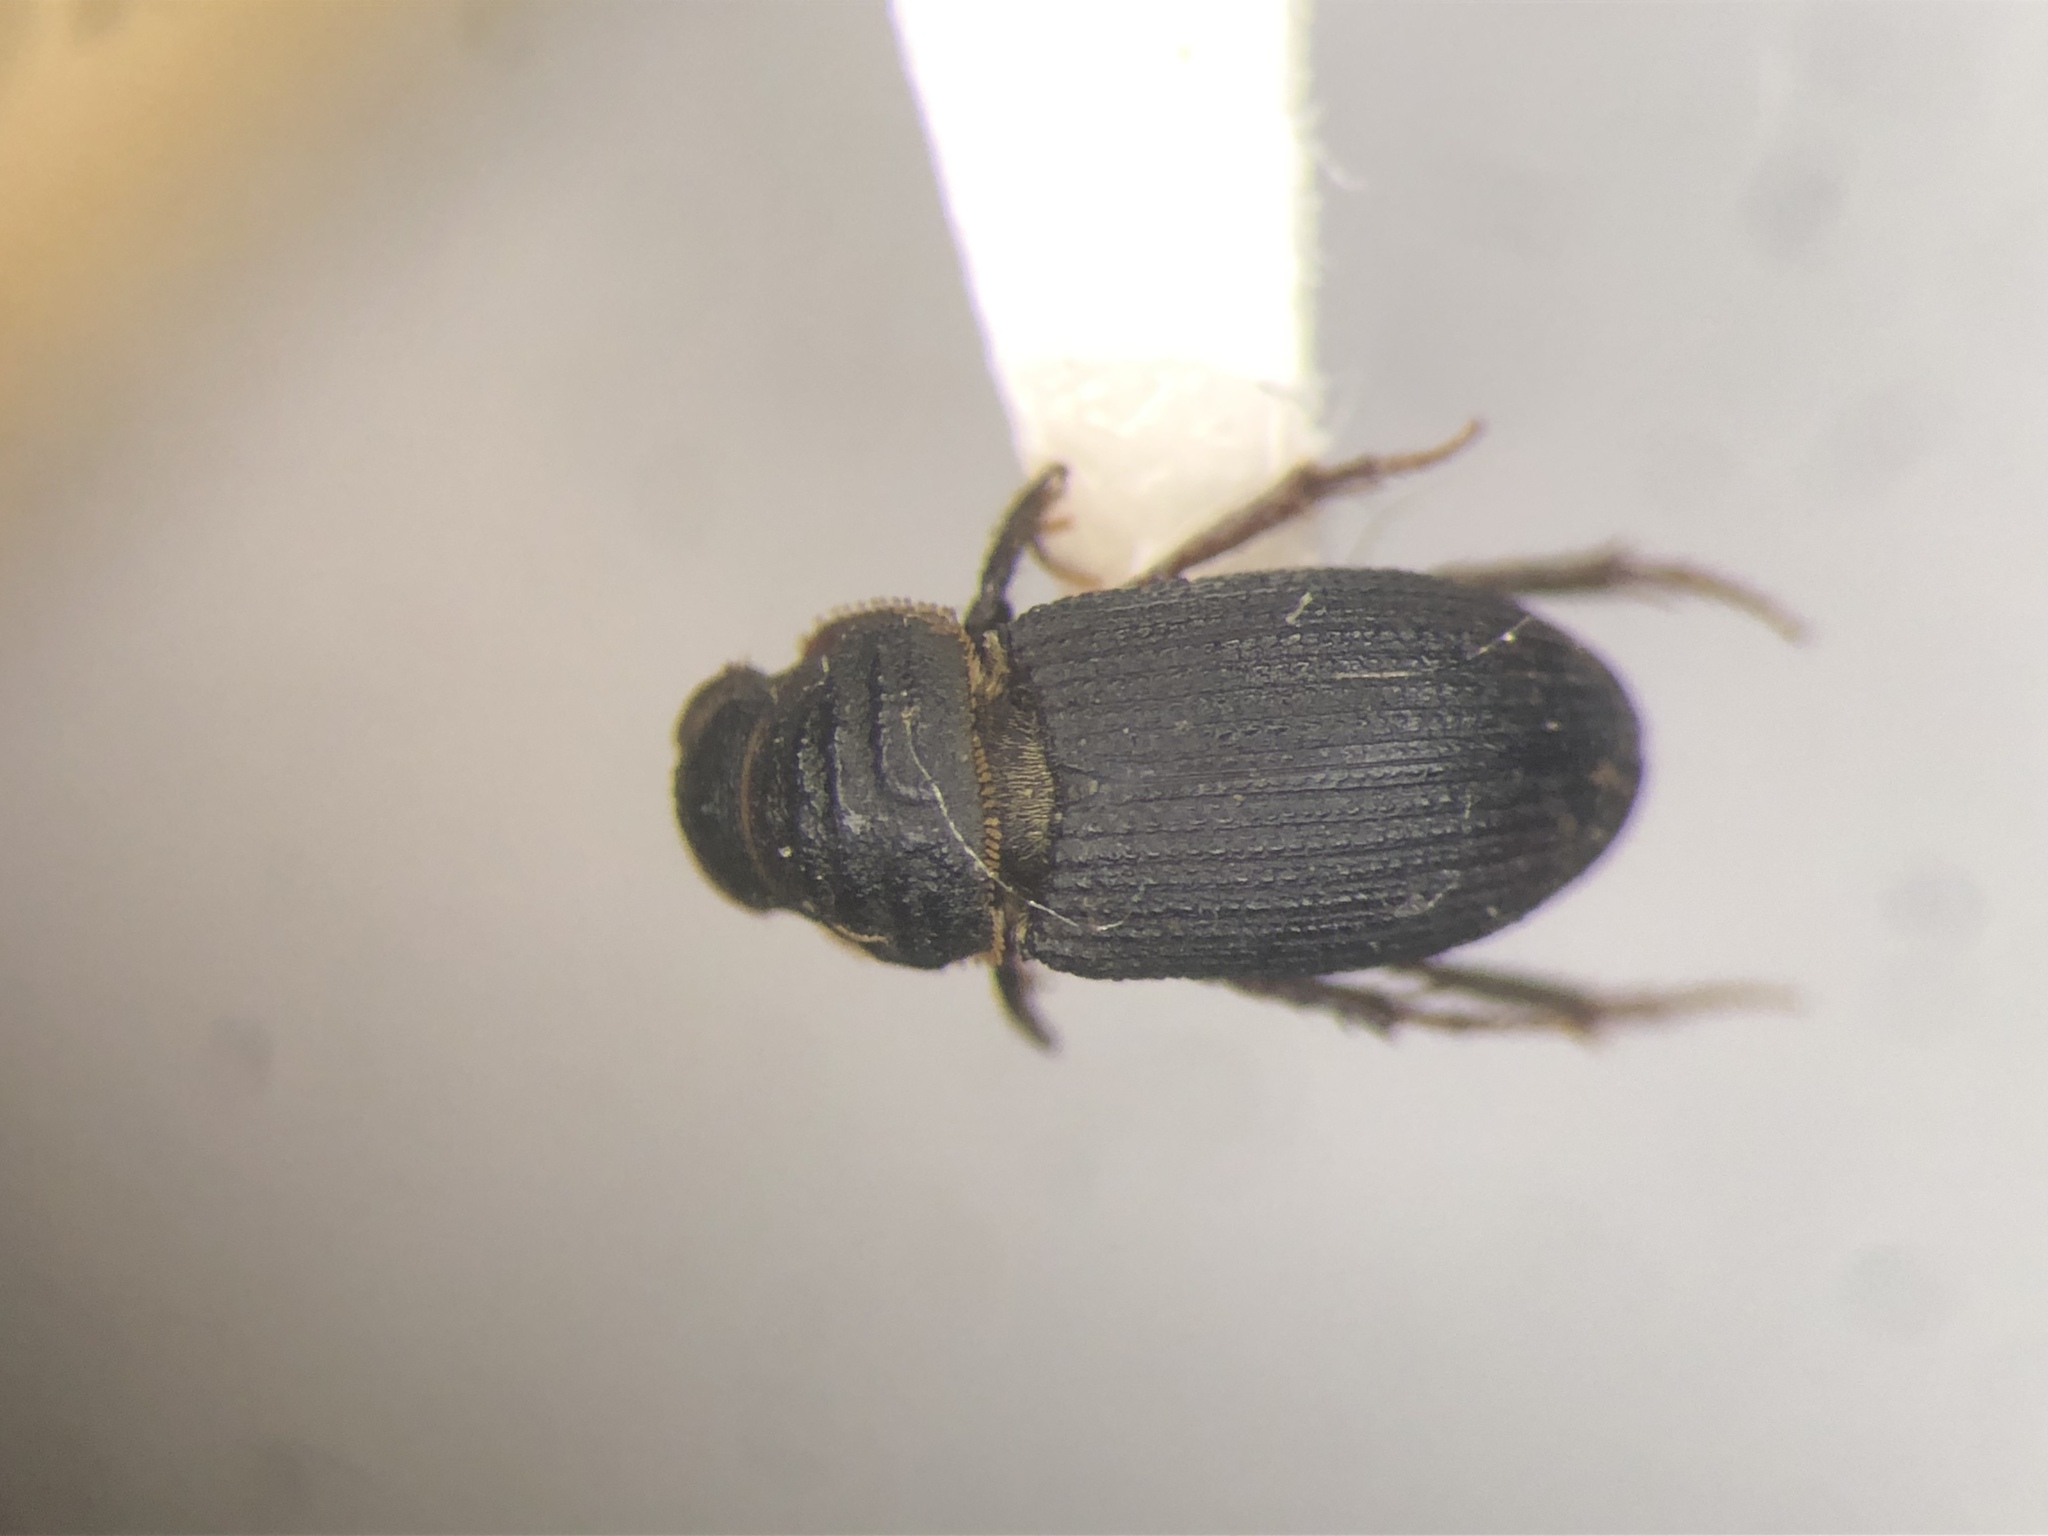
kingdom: Animalia
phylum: Arthropoda
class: Insecta
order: Coleoptera
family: Scarabaeidae
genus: Rhyssemus
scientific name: Rhyssemus puncticollis
